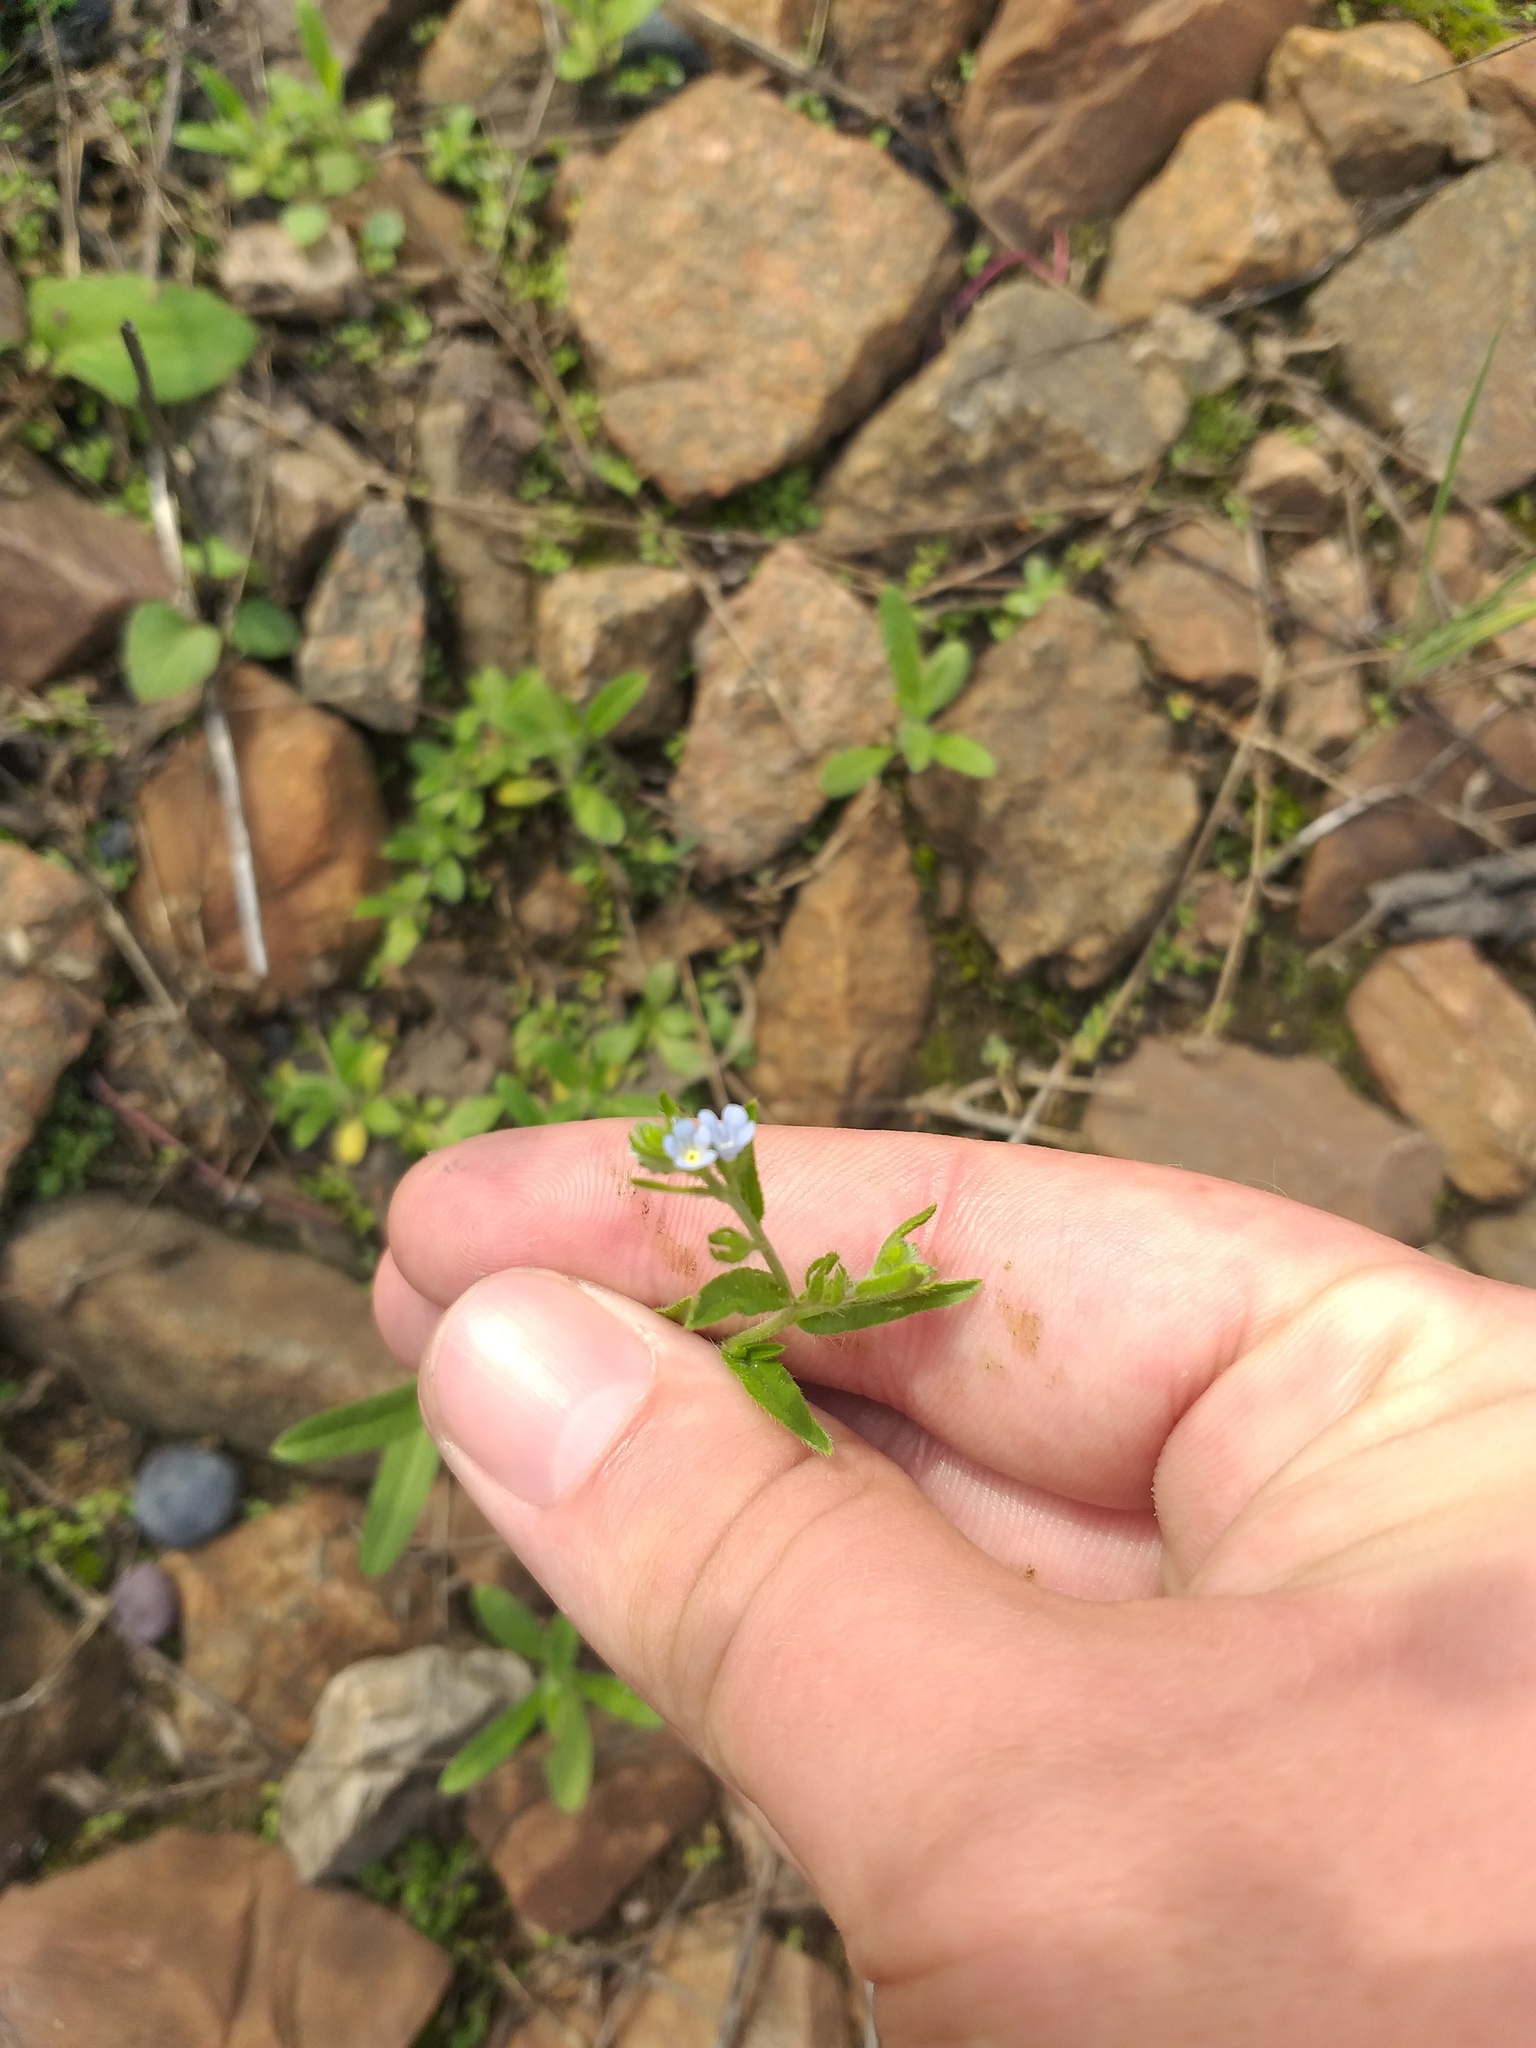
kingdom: Plantae
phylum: Tracheophyta
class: Magnoliopsida
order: Boraginales
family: Boraginaceae
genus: Lappula
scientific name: Lappula squarrosa
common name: European stickseed
